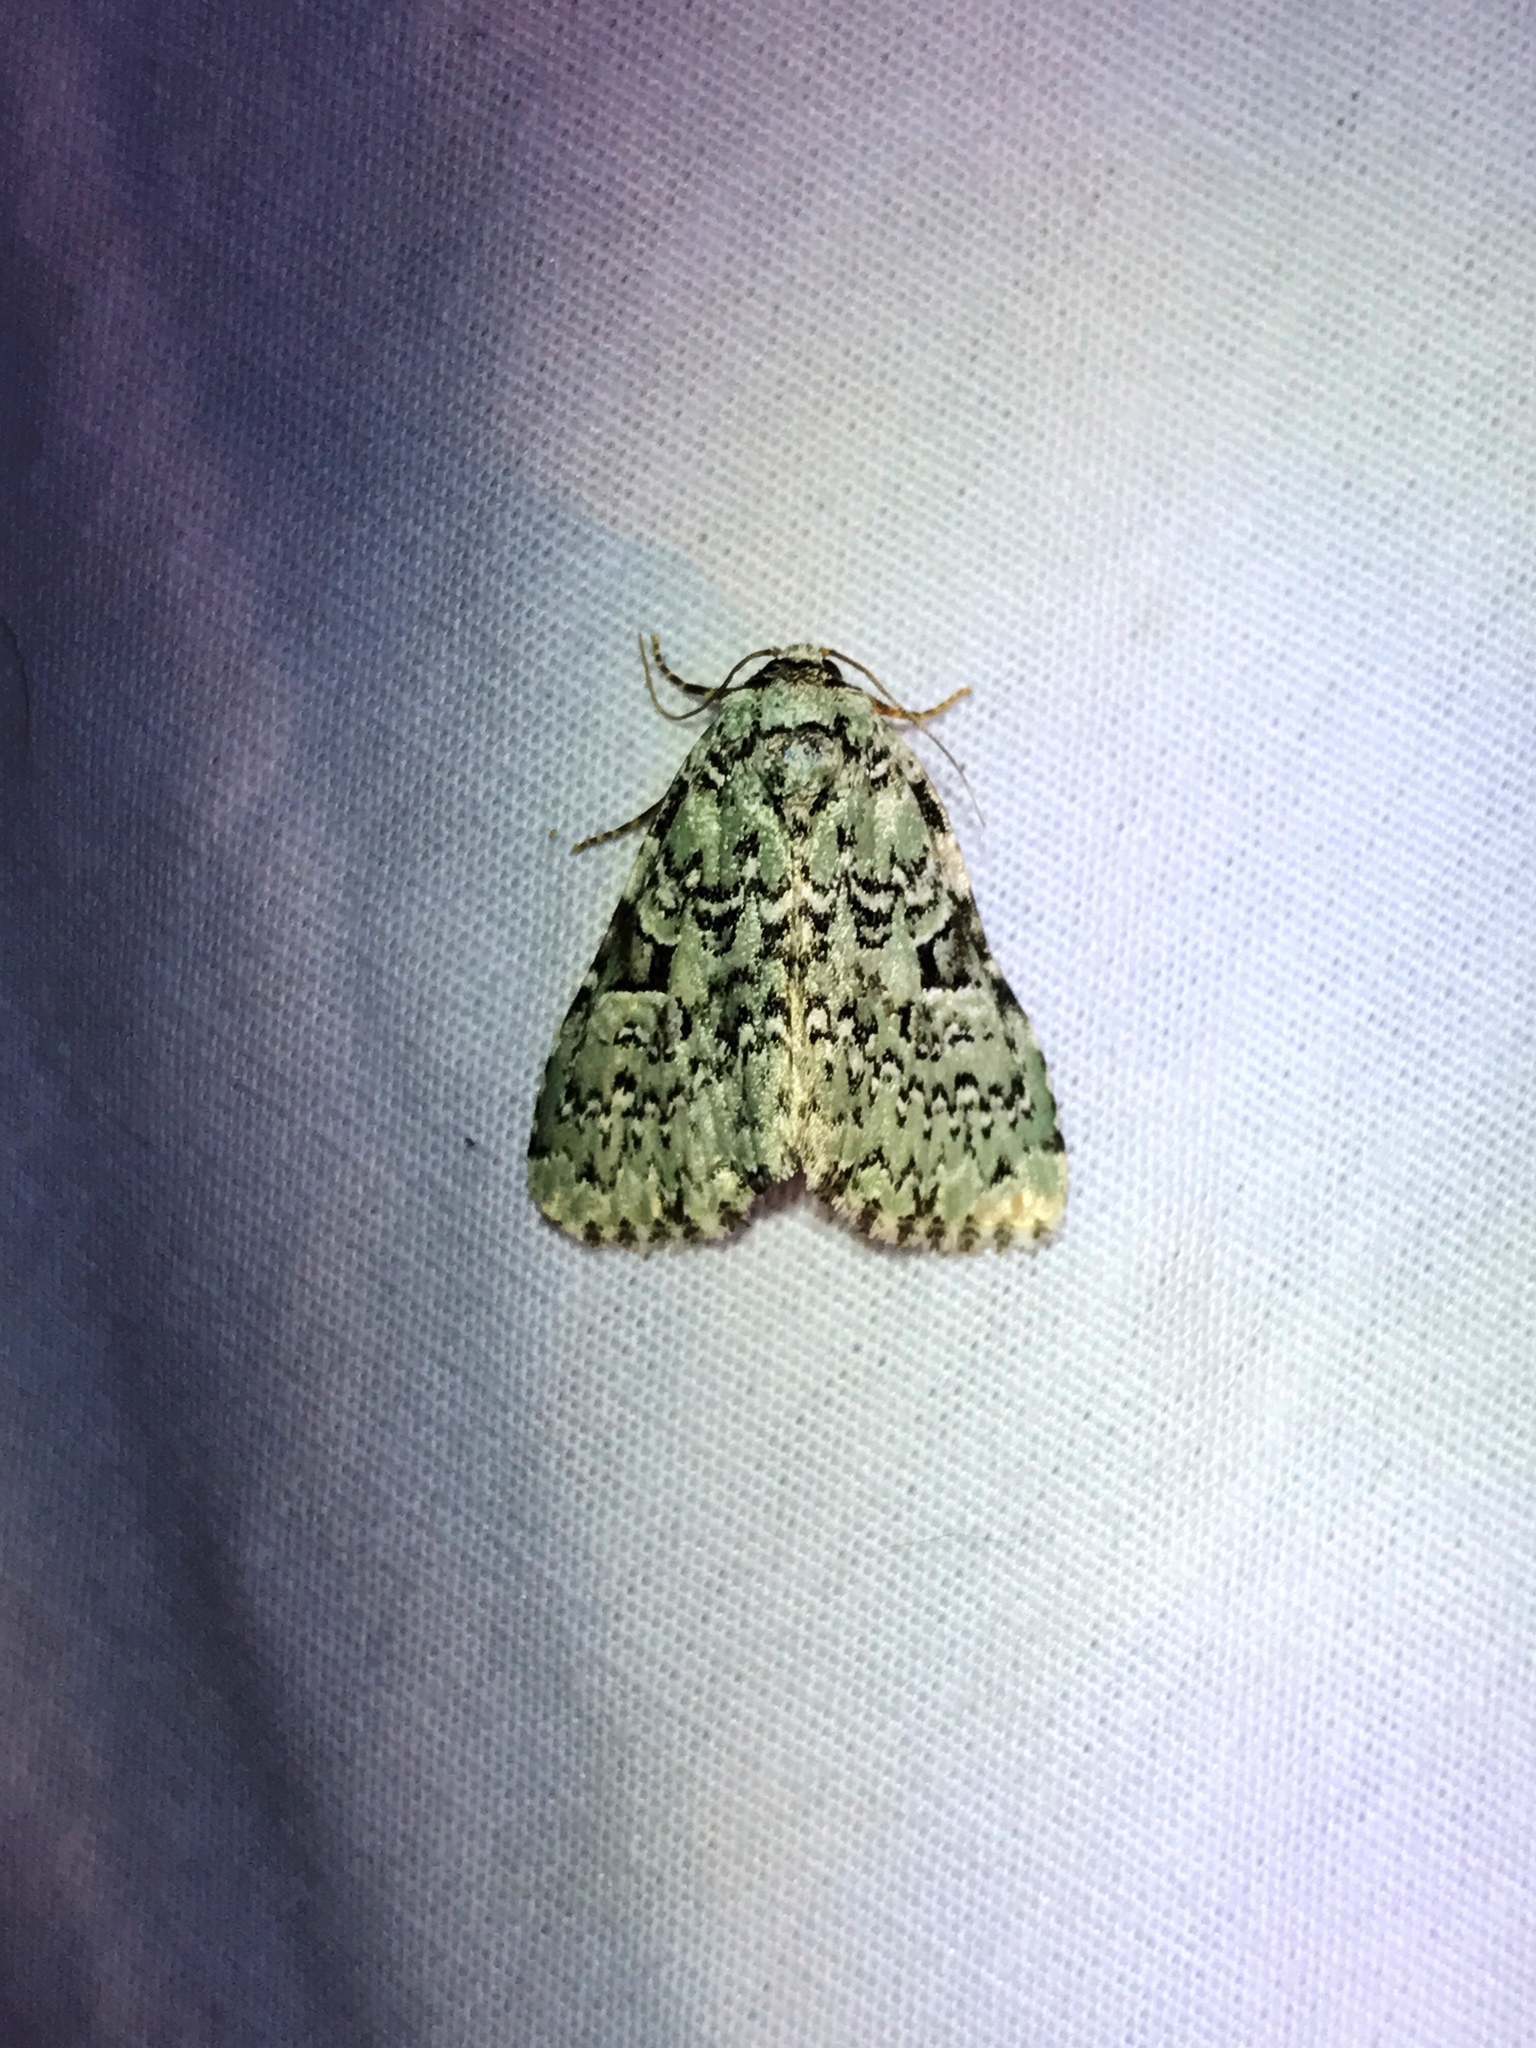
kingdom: Animalia
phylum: Arthropoda
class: Insecta
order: Lepidoptera
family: Noctuidae
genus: Leuconycta
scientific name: Leuconycta diphteroides
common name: Green leuconycta moth
